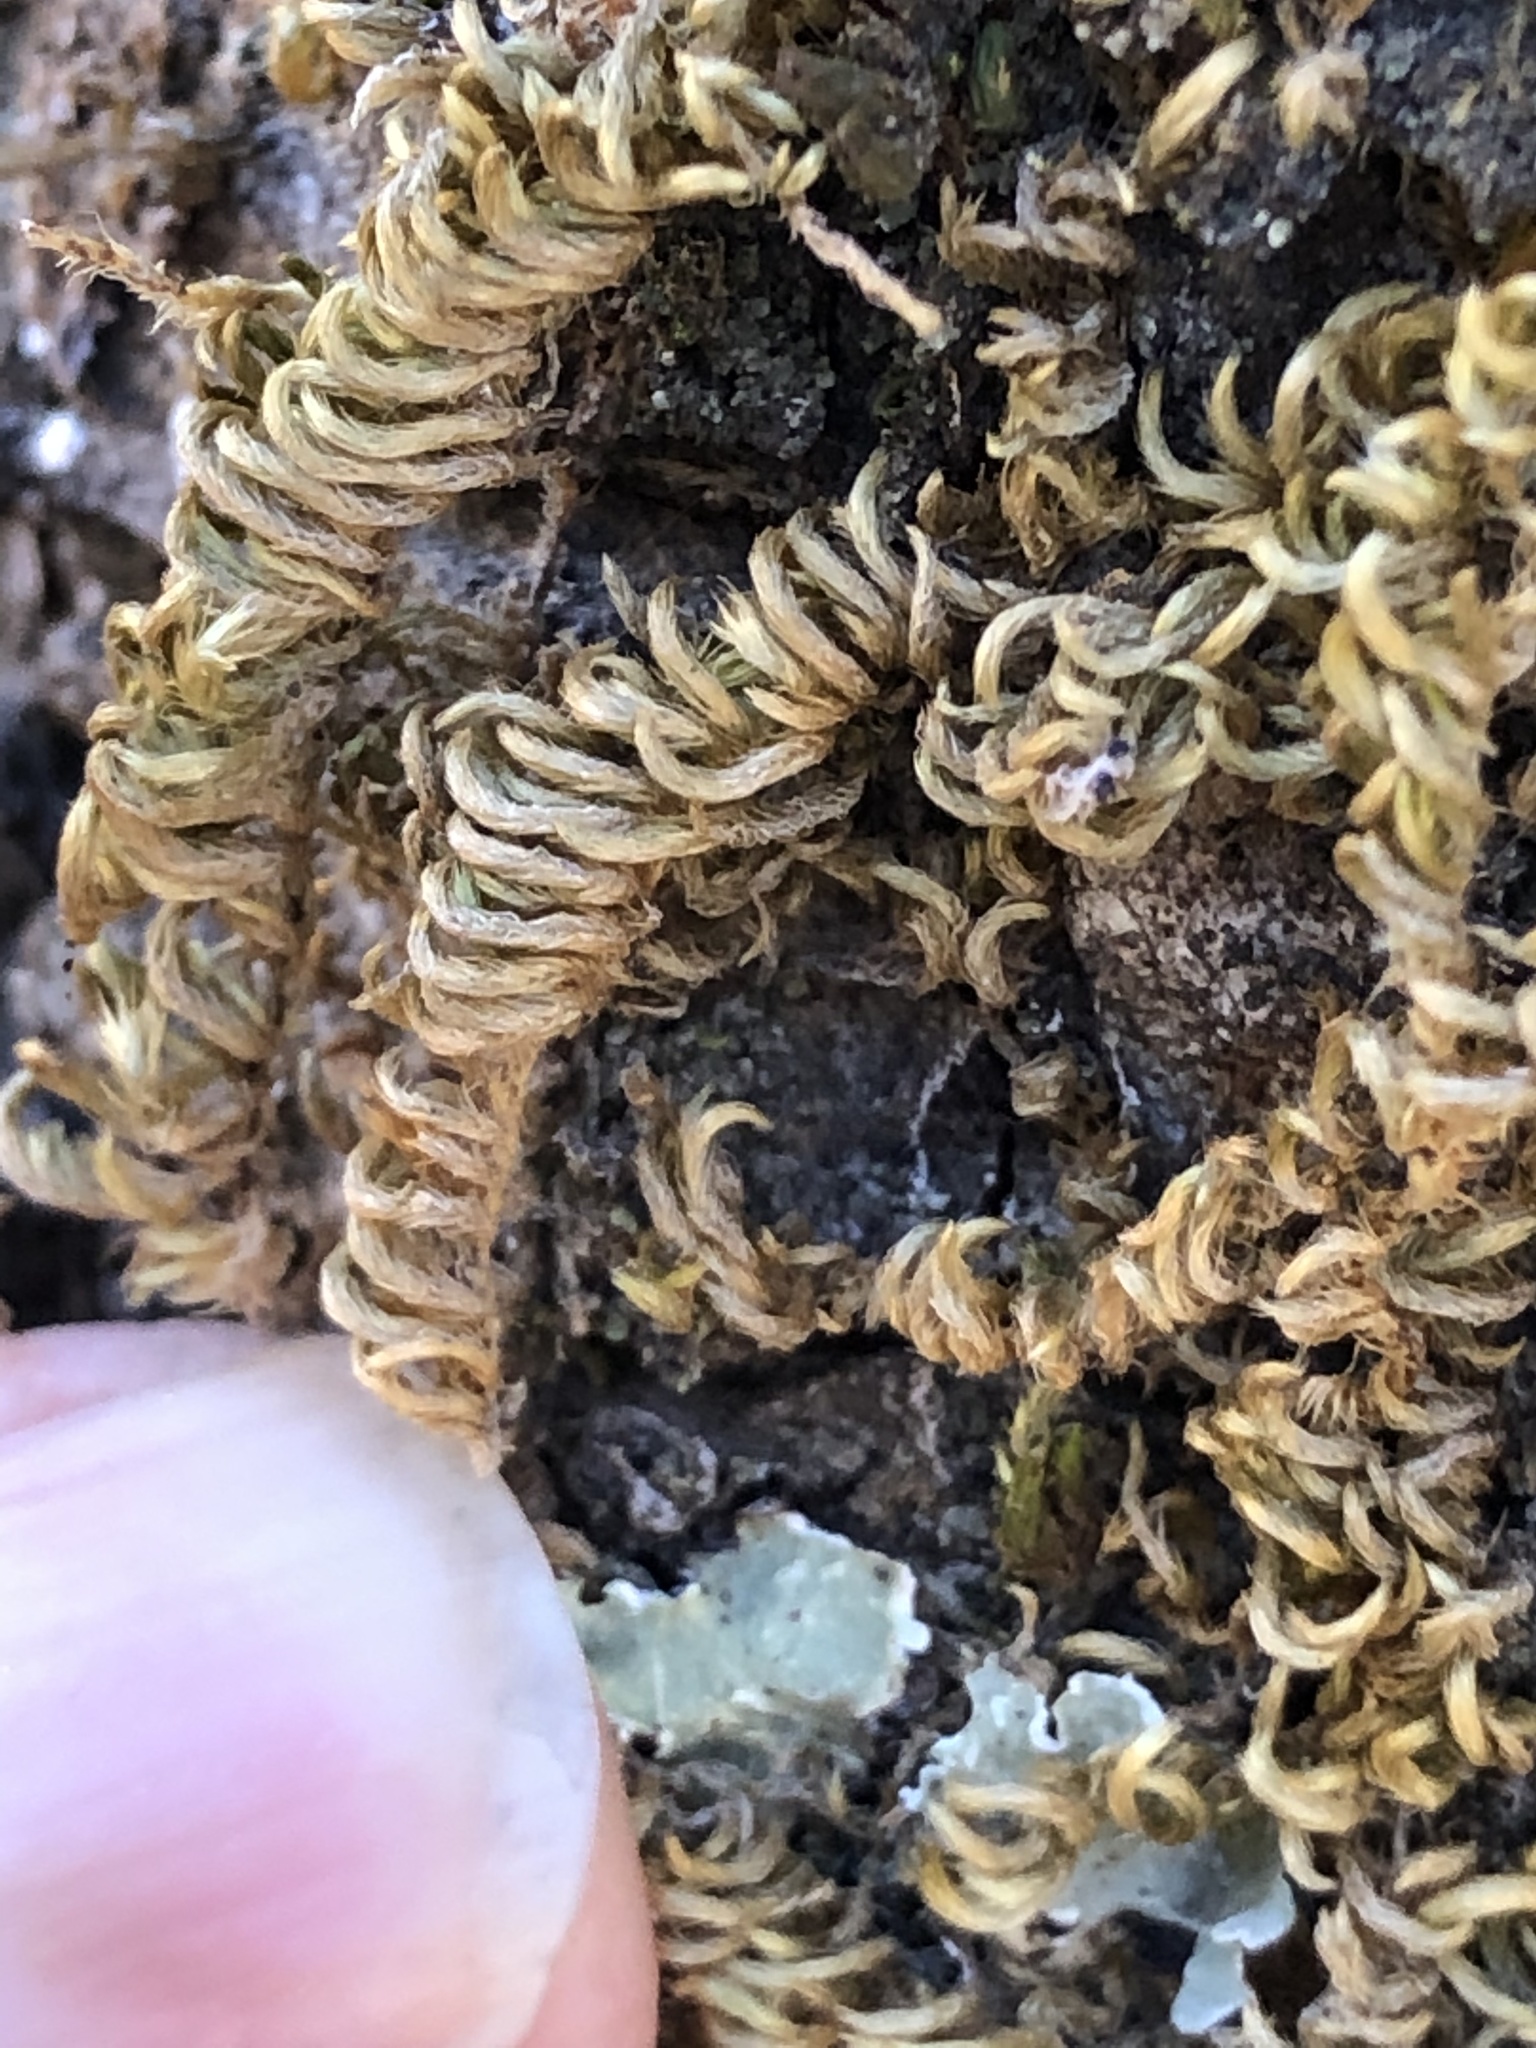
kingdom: Plantae
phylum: Bryophyta
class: Bryopsida
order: Hypnales
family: Brachytheciaceae
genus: Homalothecium
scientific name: Homalothecium nuttallii
